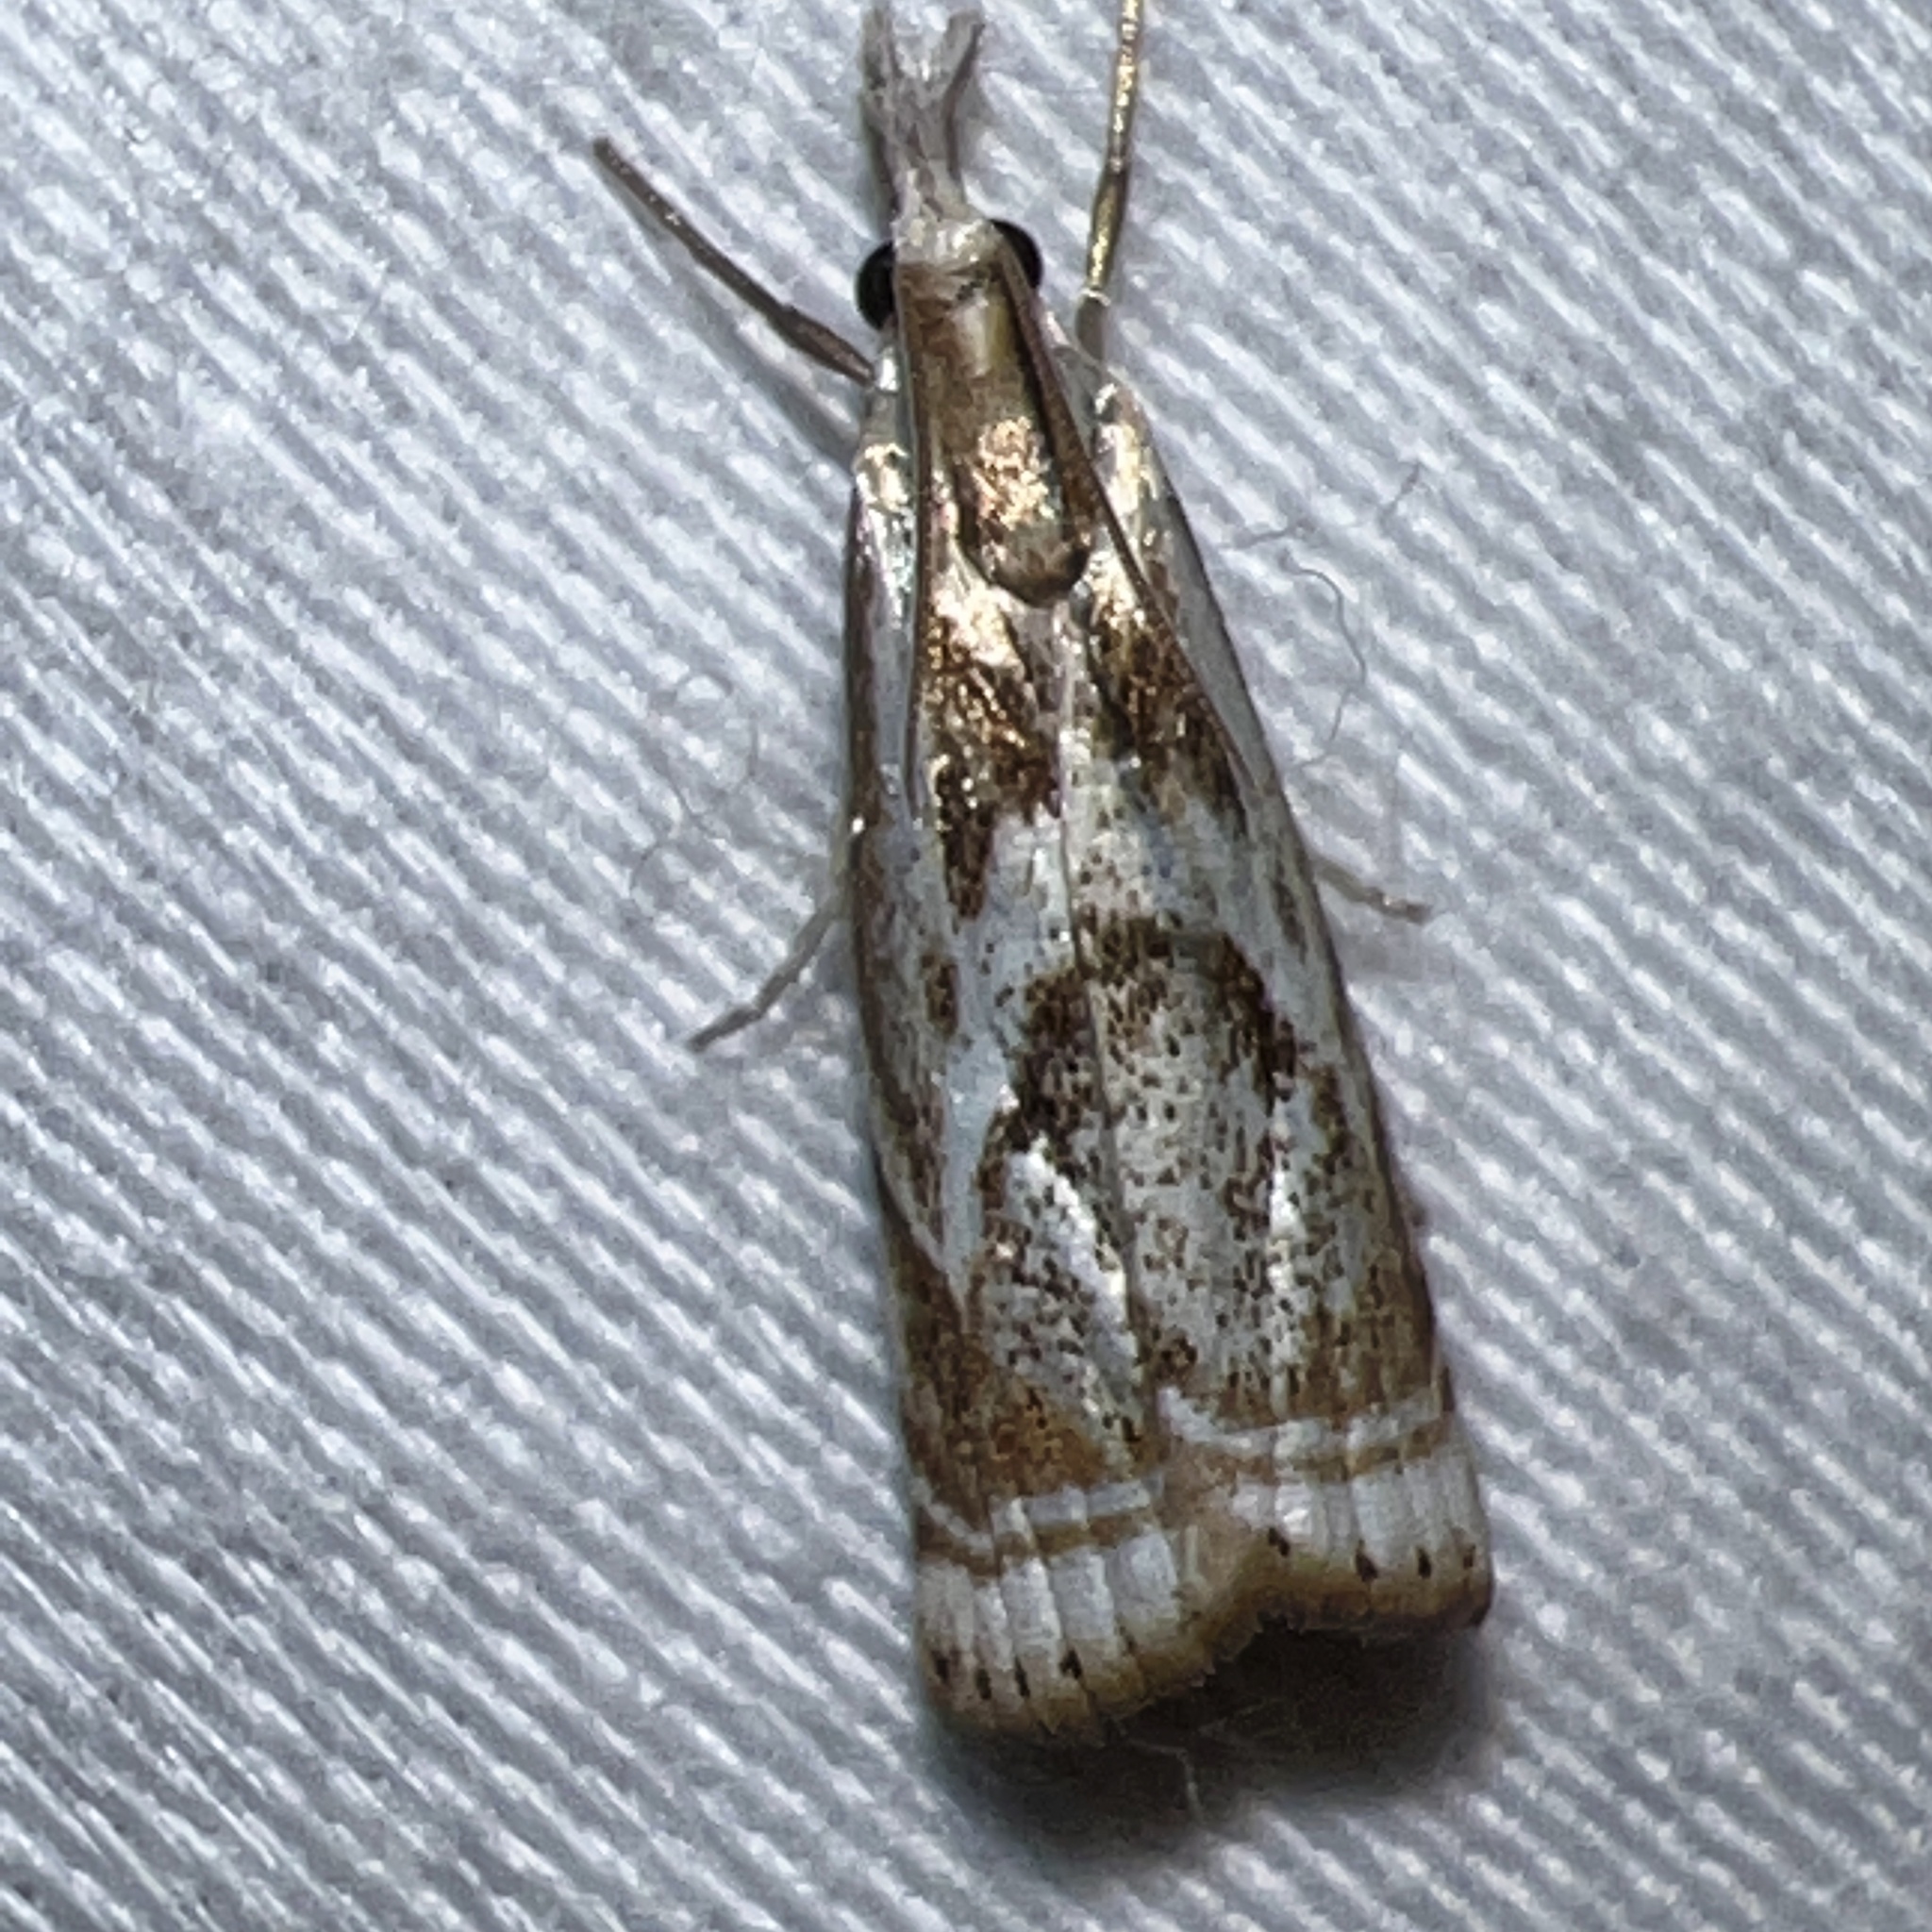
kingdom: Animalia
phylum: Arthropoda
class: Insecta
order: Lepidoptera
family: Crambidae
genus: Microcrambus
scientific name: Microcrambus elegans
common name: Elegant grass-veneer
